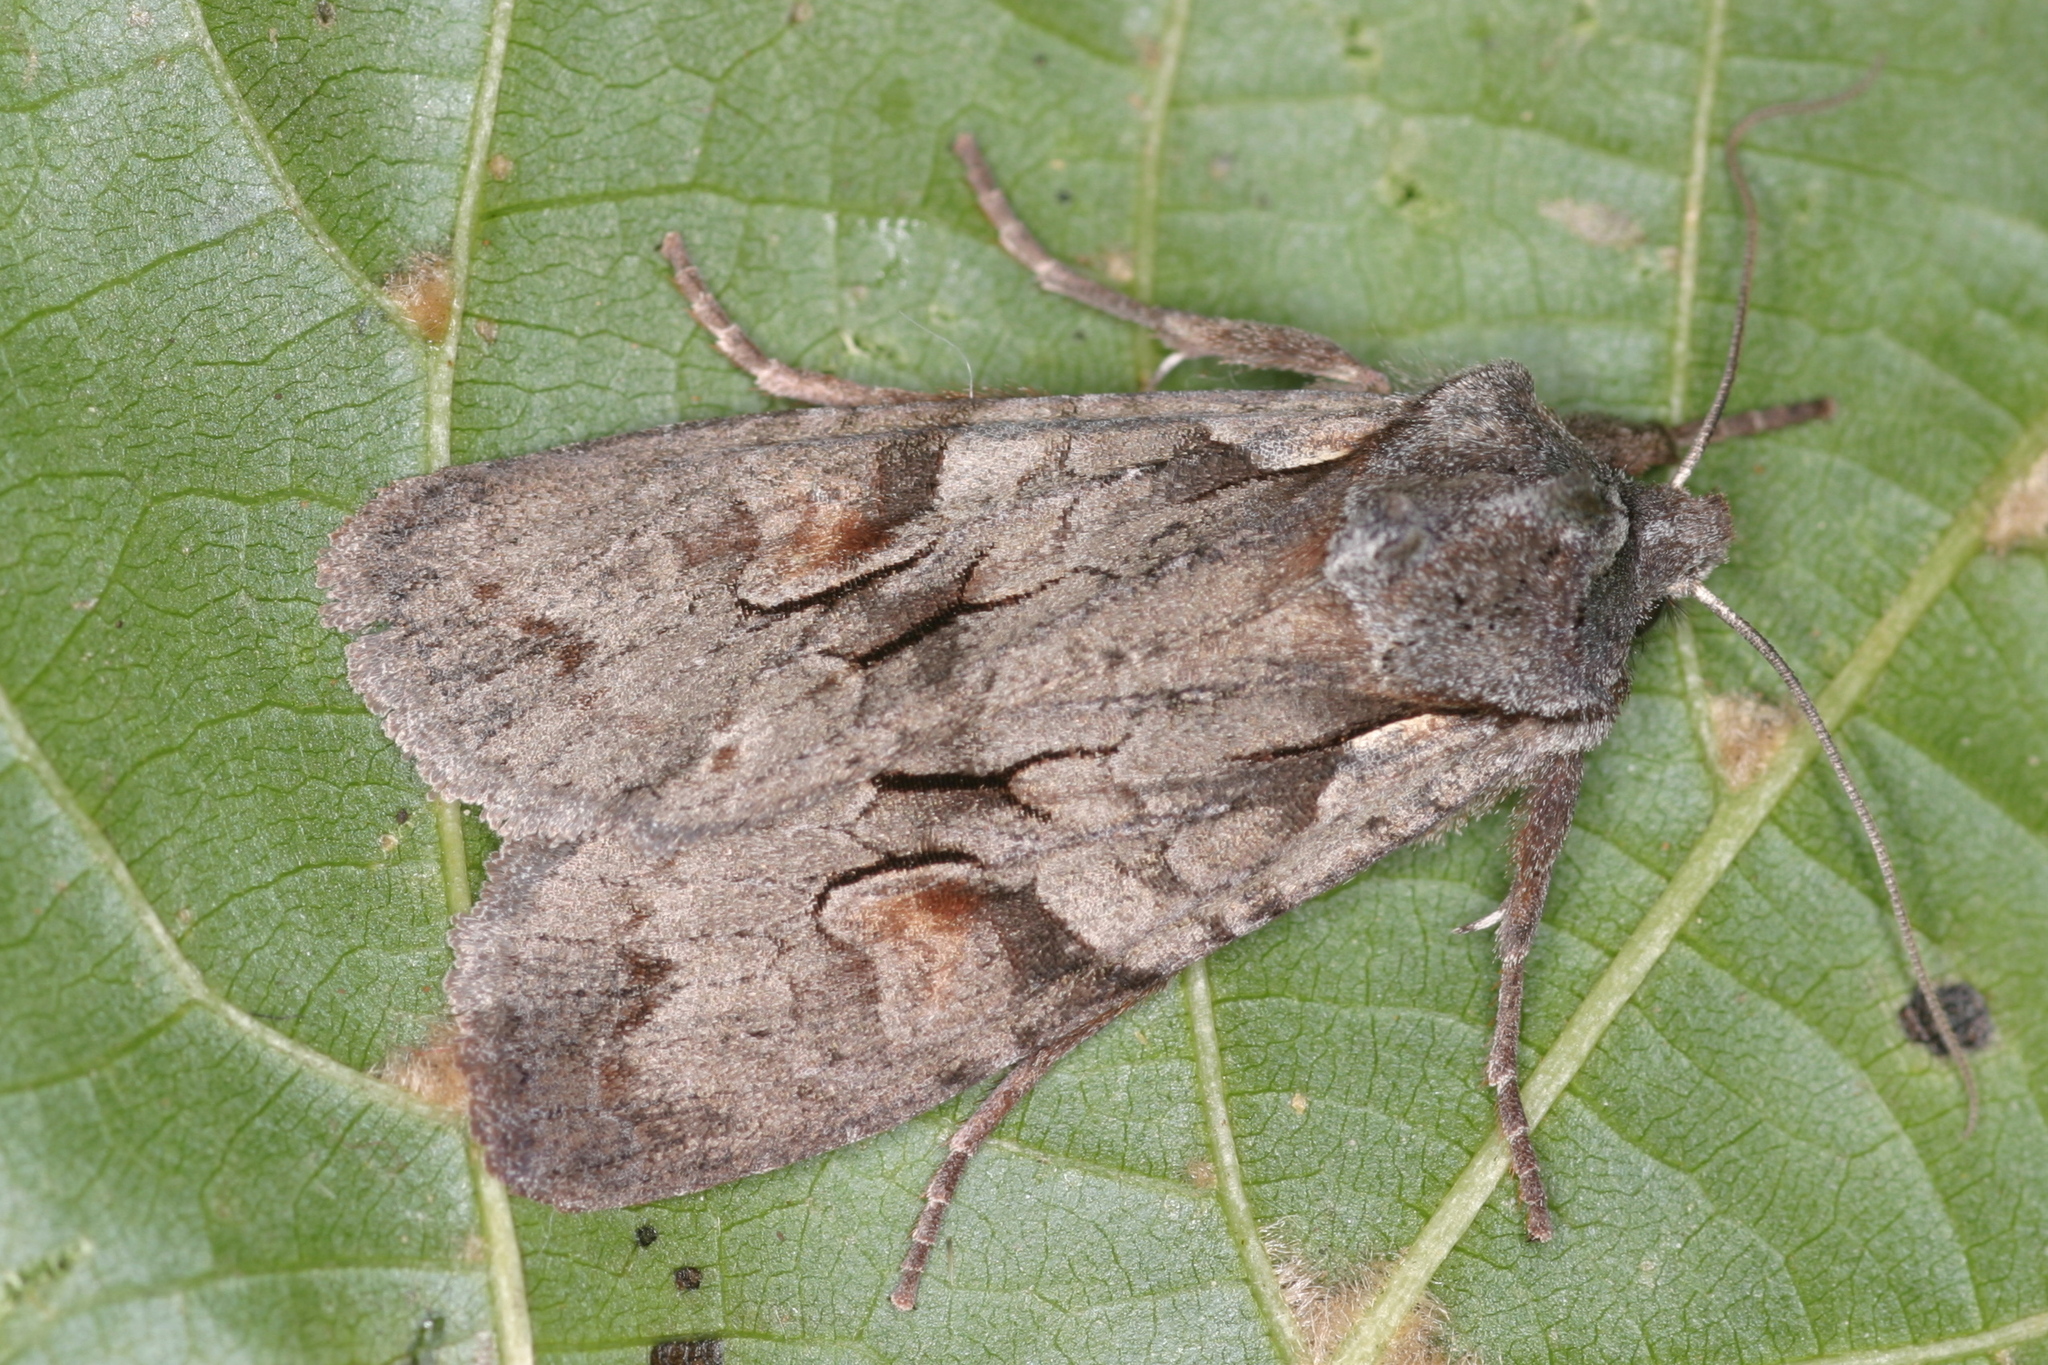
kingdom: Animalia
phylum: Arthropoda
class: Insecta
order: Lepidoptera
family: Noctuidae
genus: Lithophane
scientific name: Lithophane furcifera
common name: Conformist
